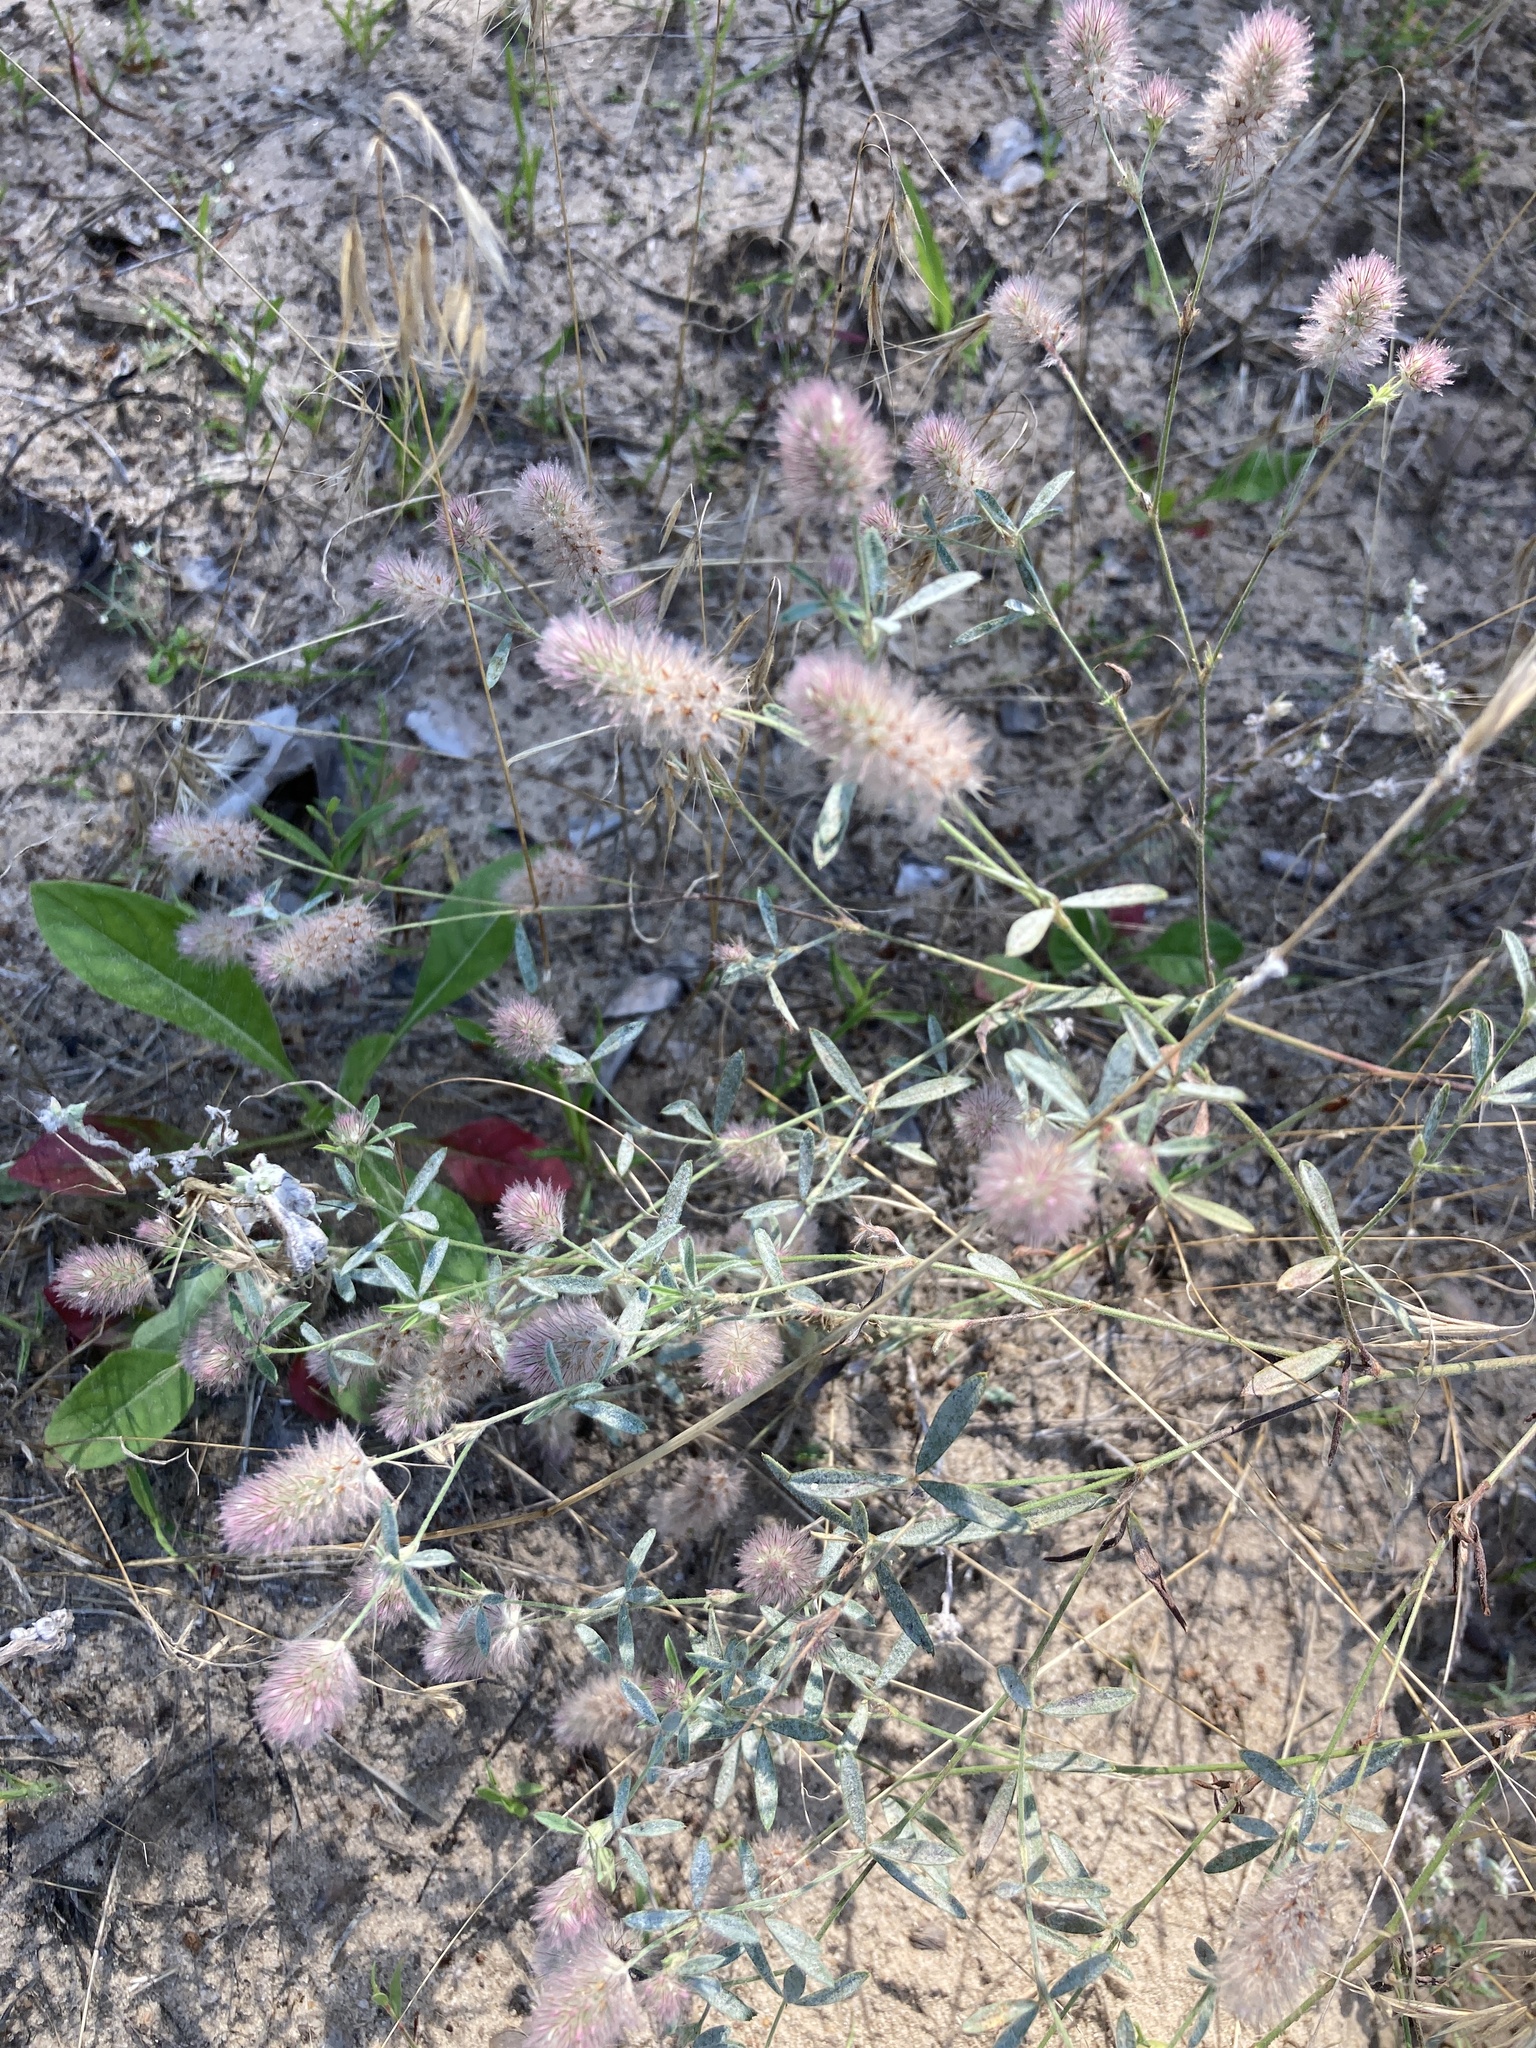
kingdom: Plantae
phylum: Tracheophyta
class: Magnoliopsida
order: Fabales
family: Fabaceae
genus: Trifolium
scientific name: Trifolium arvense
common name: Hare's-foot clover
